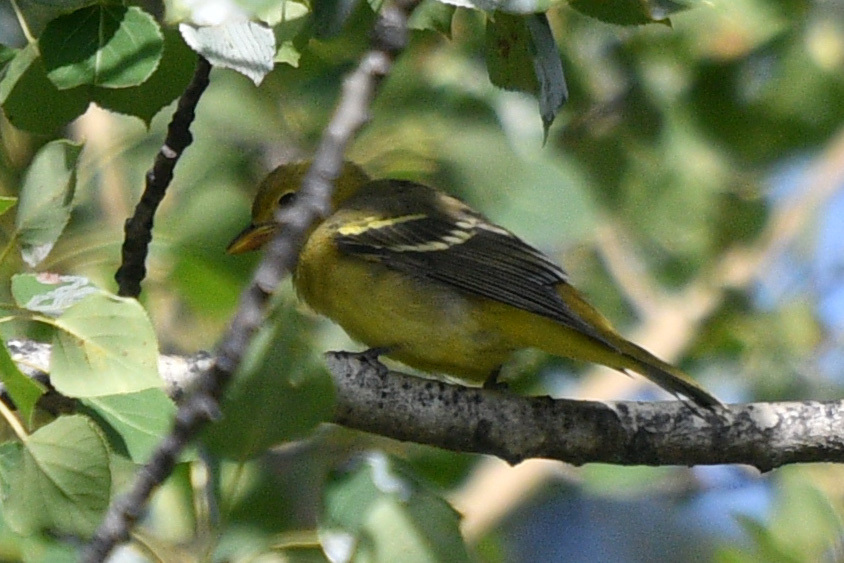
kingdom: Animalia
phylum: Chordata
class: Aves
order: Passeriformes
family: Cardinalidae
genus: Piranga
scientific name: Piranga ludoviciana
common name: Western tanager
